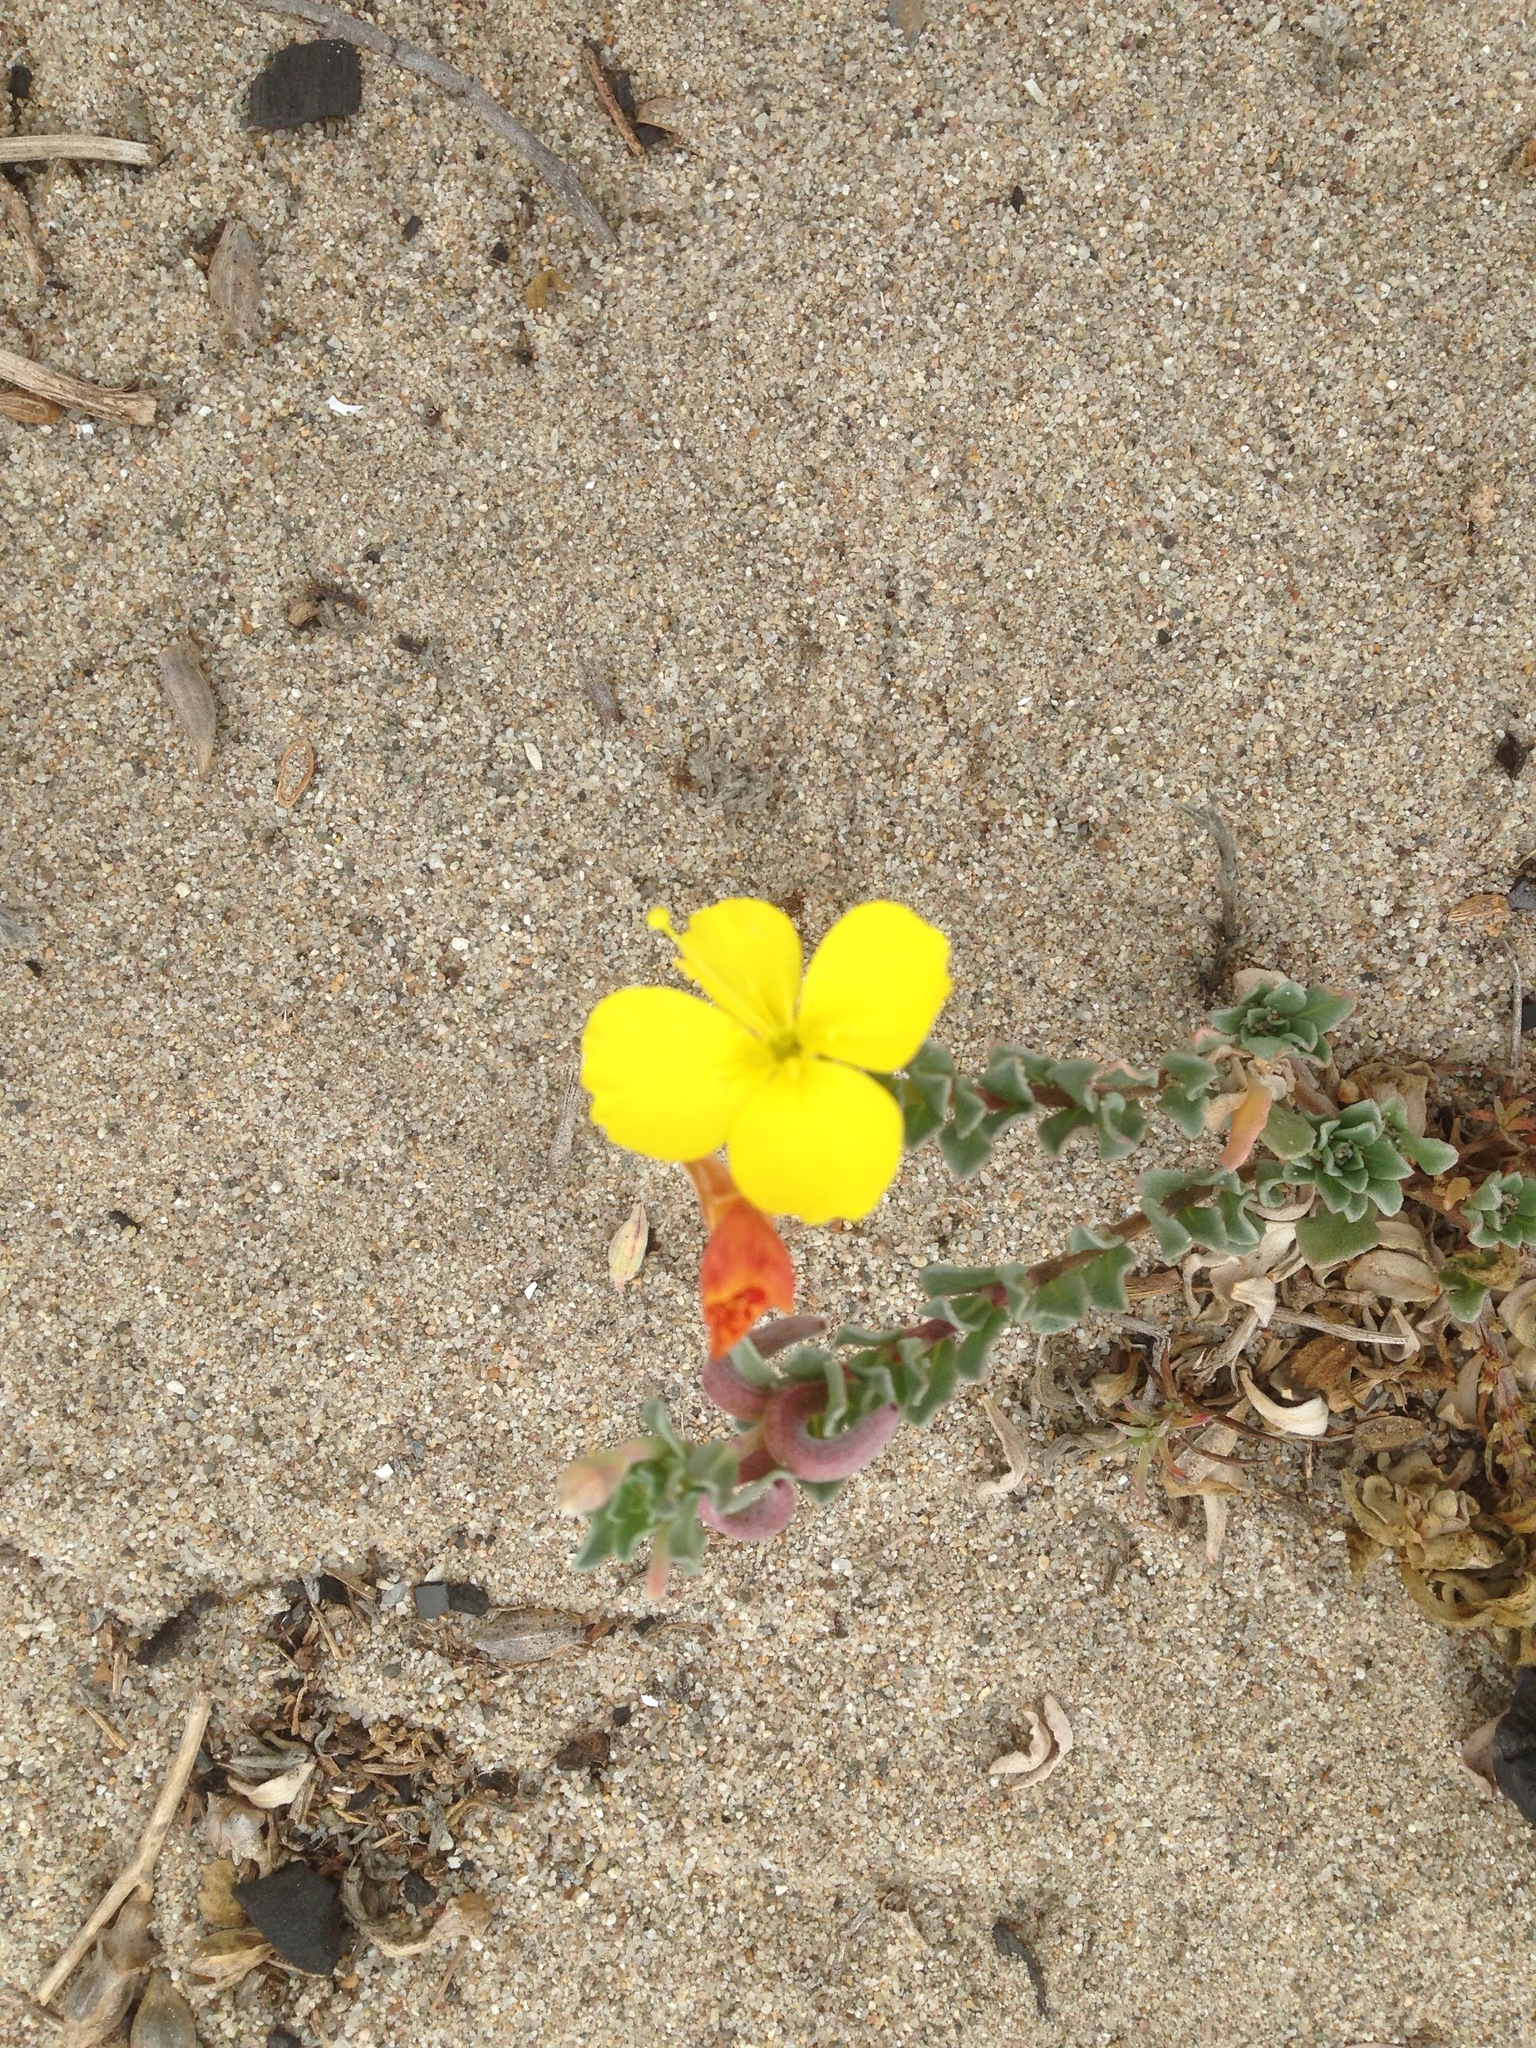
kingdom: Plantae
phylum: Tracheophyta
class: Magnoliopsida
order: Myrtales
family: Onagraceae
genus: Camissoniopsis
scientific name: Camissoniopsis cheiranthifolia
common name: Beach suncup
